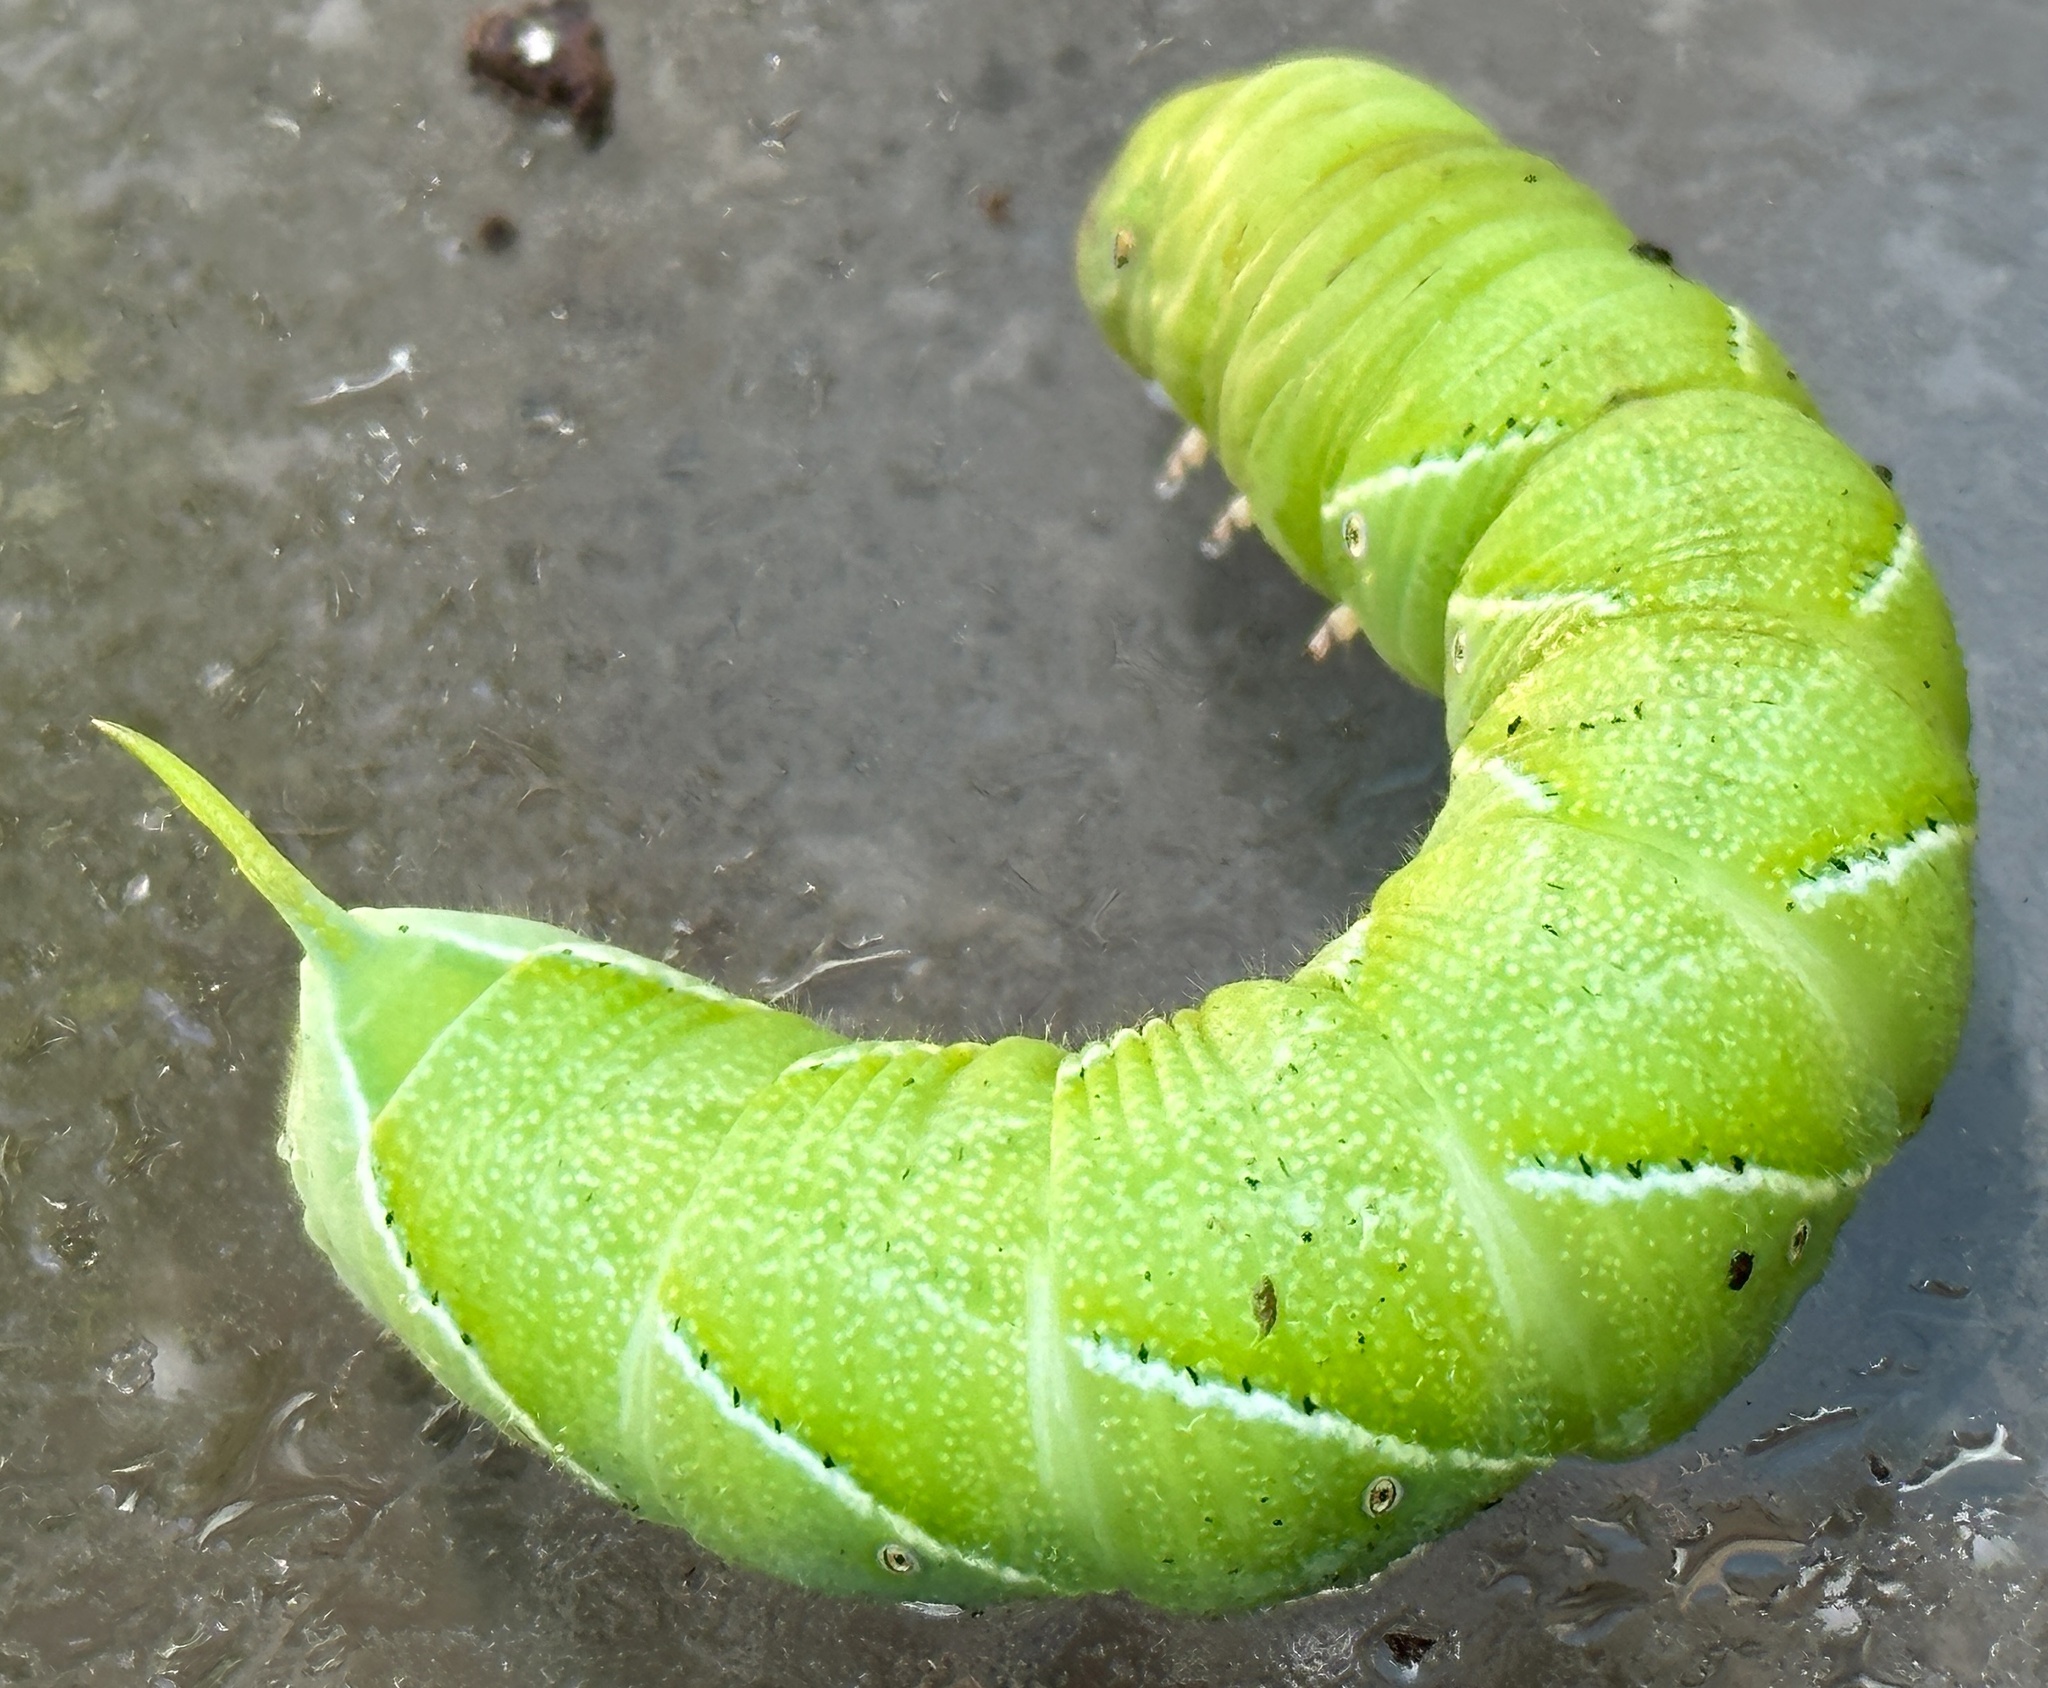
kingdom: Animalia
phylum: Arthropoda
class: Insecta
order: Lepidoptera
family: Sphingidae
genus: Manduca
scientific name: Manduca sexta
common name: Carolina sphinx
